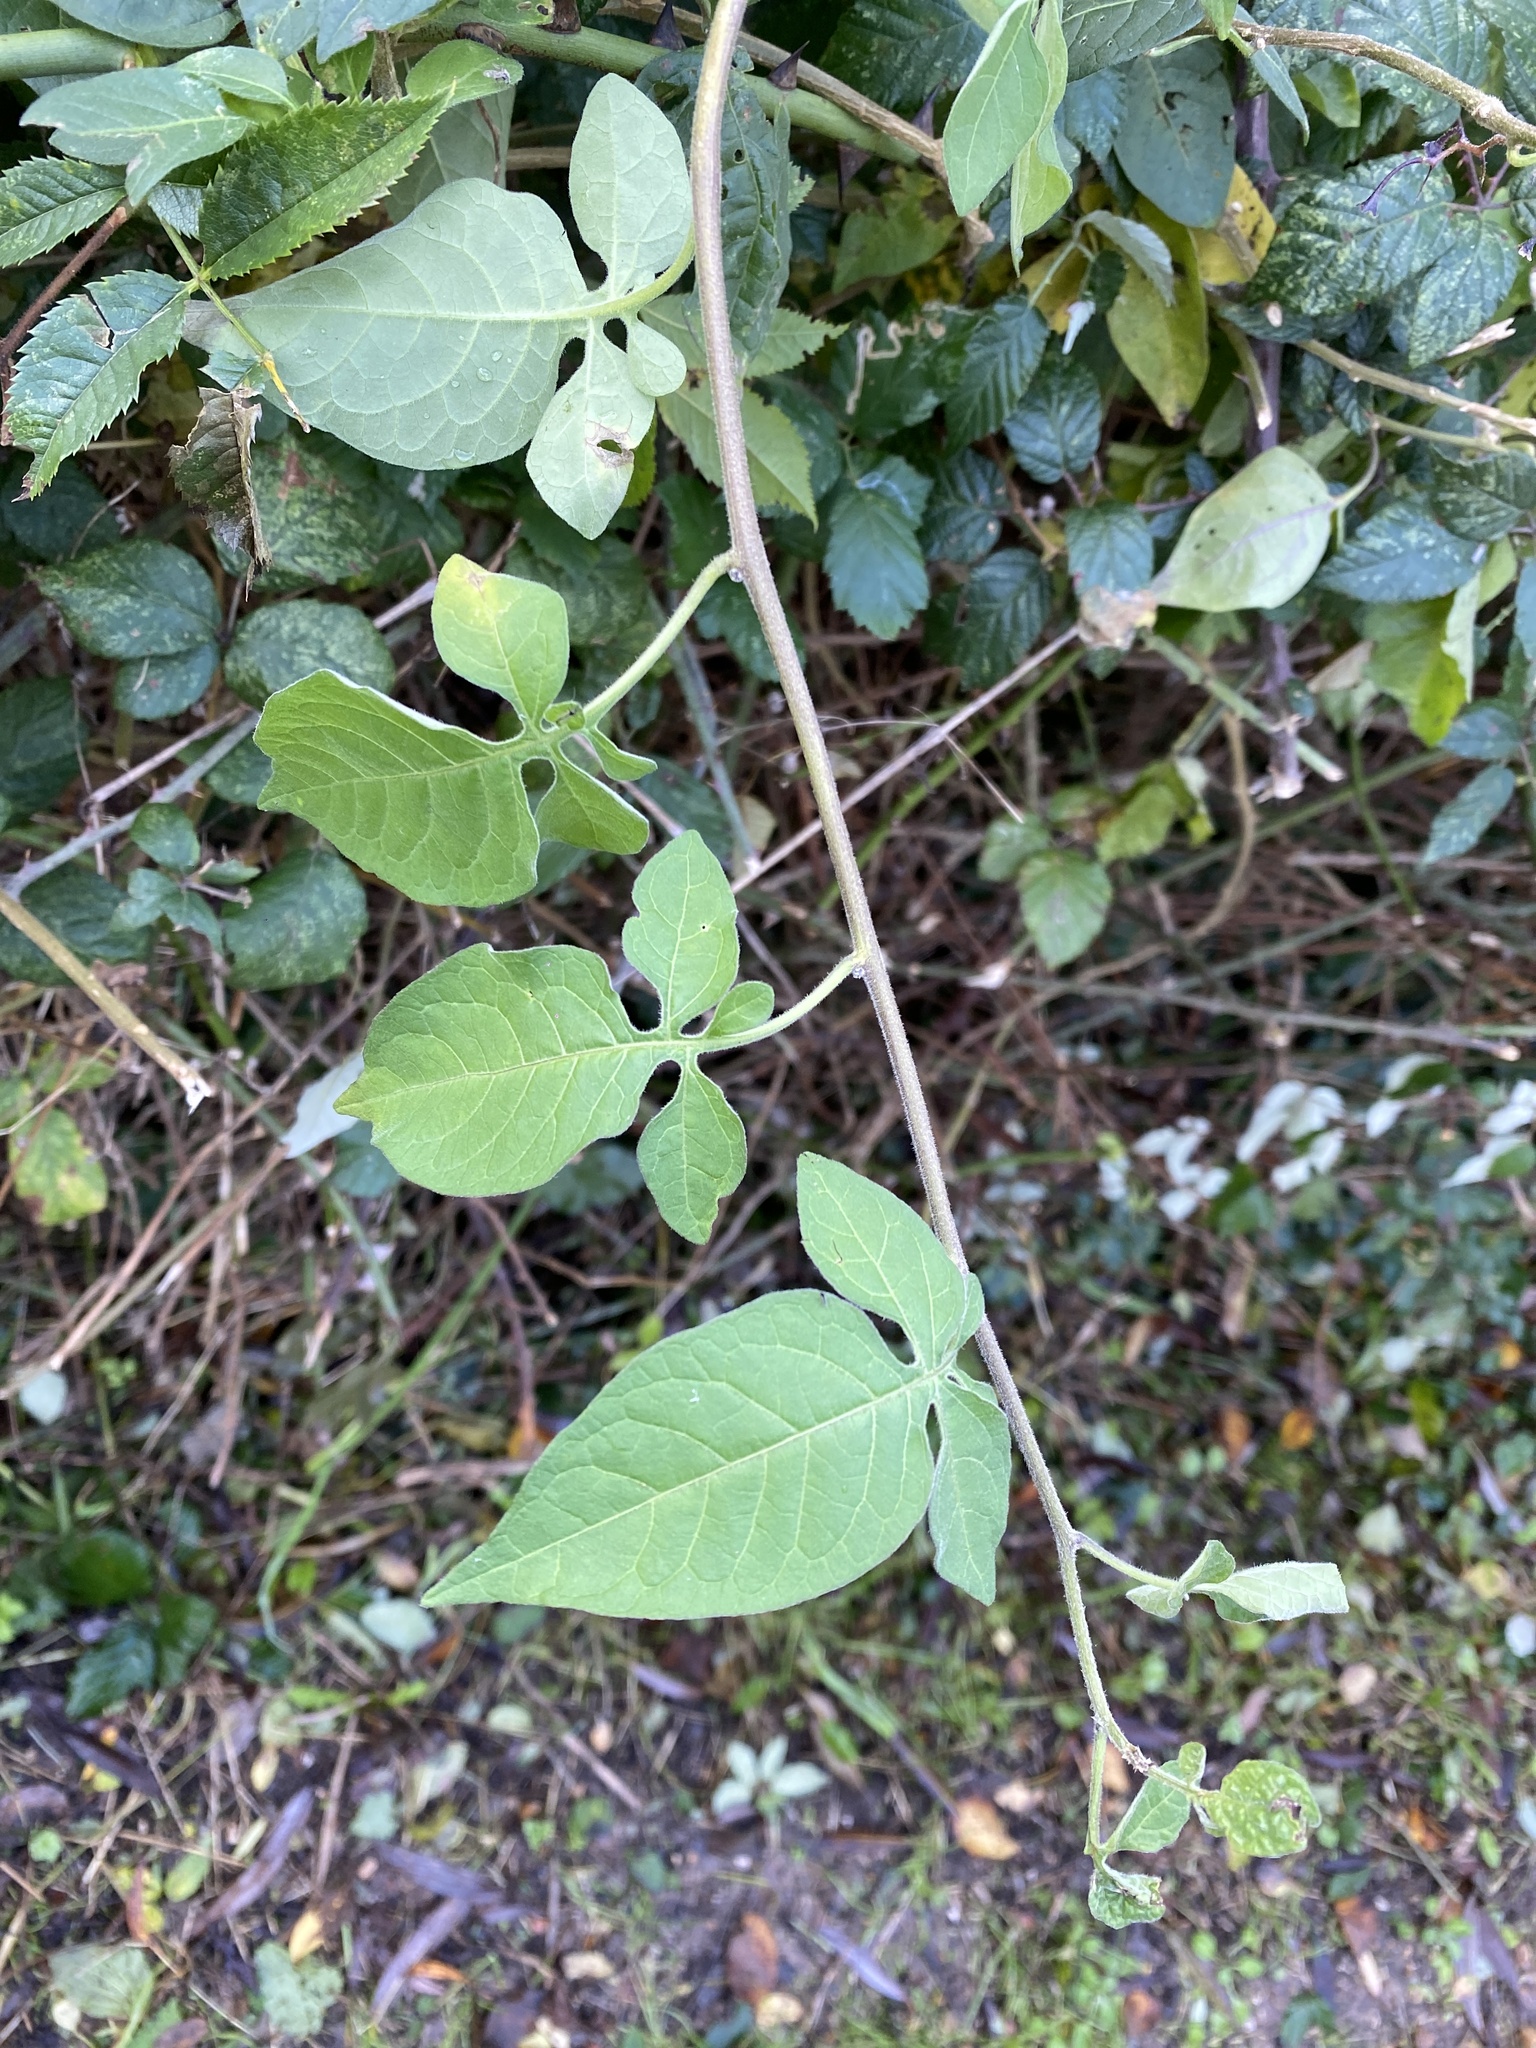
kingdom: Plantae
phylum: Tracheophyta
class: Magnoliopsida
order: Solanales
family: Solanaceae
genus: Solanum
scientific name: Solanum dulcamara
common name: Climbing nightshade
